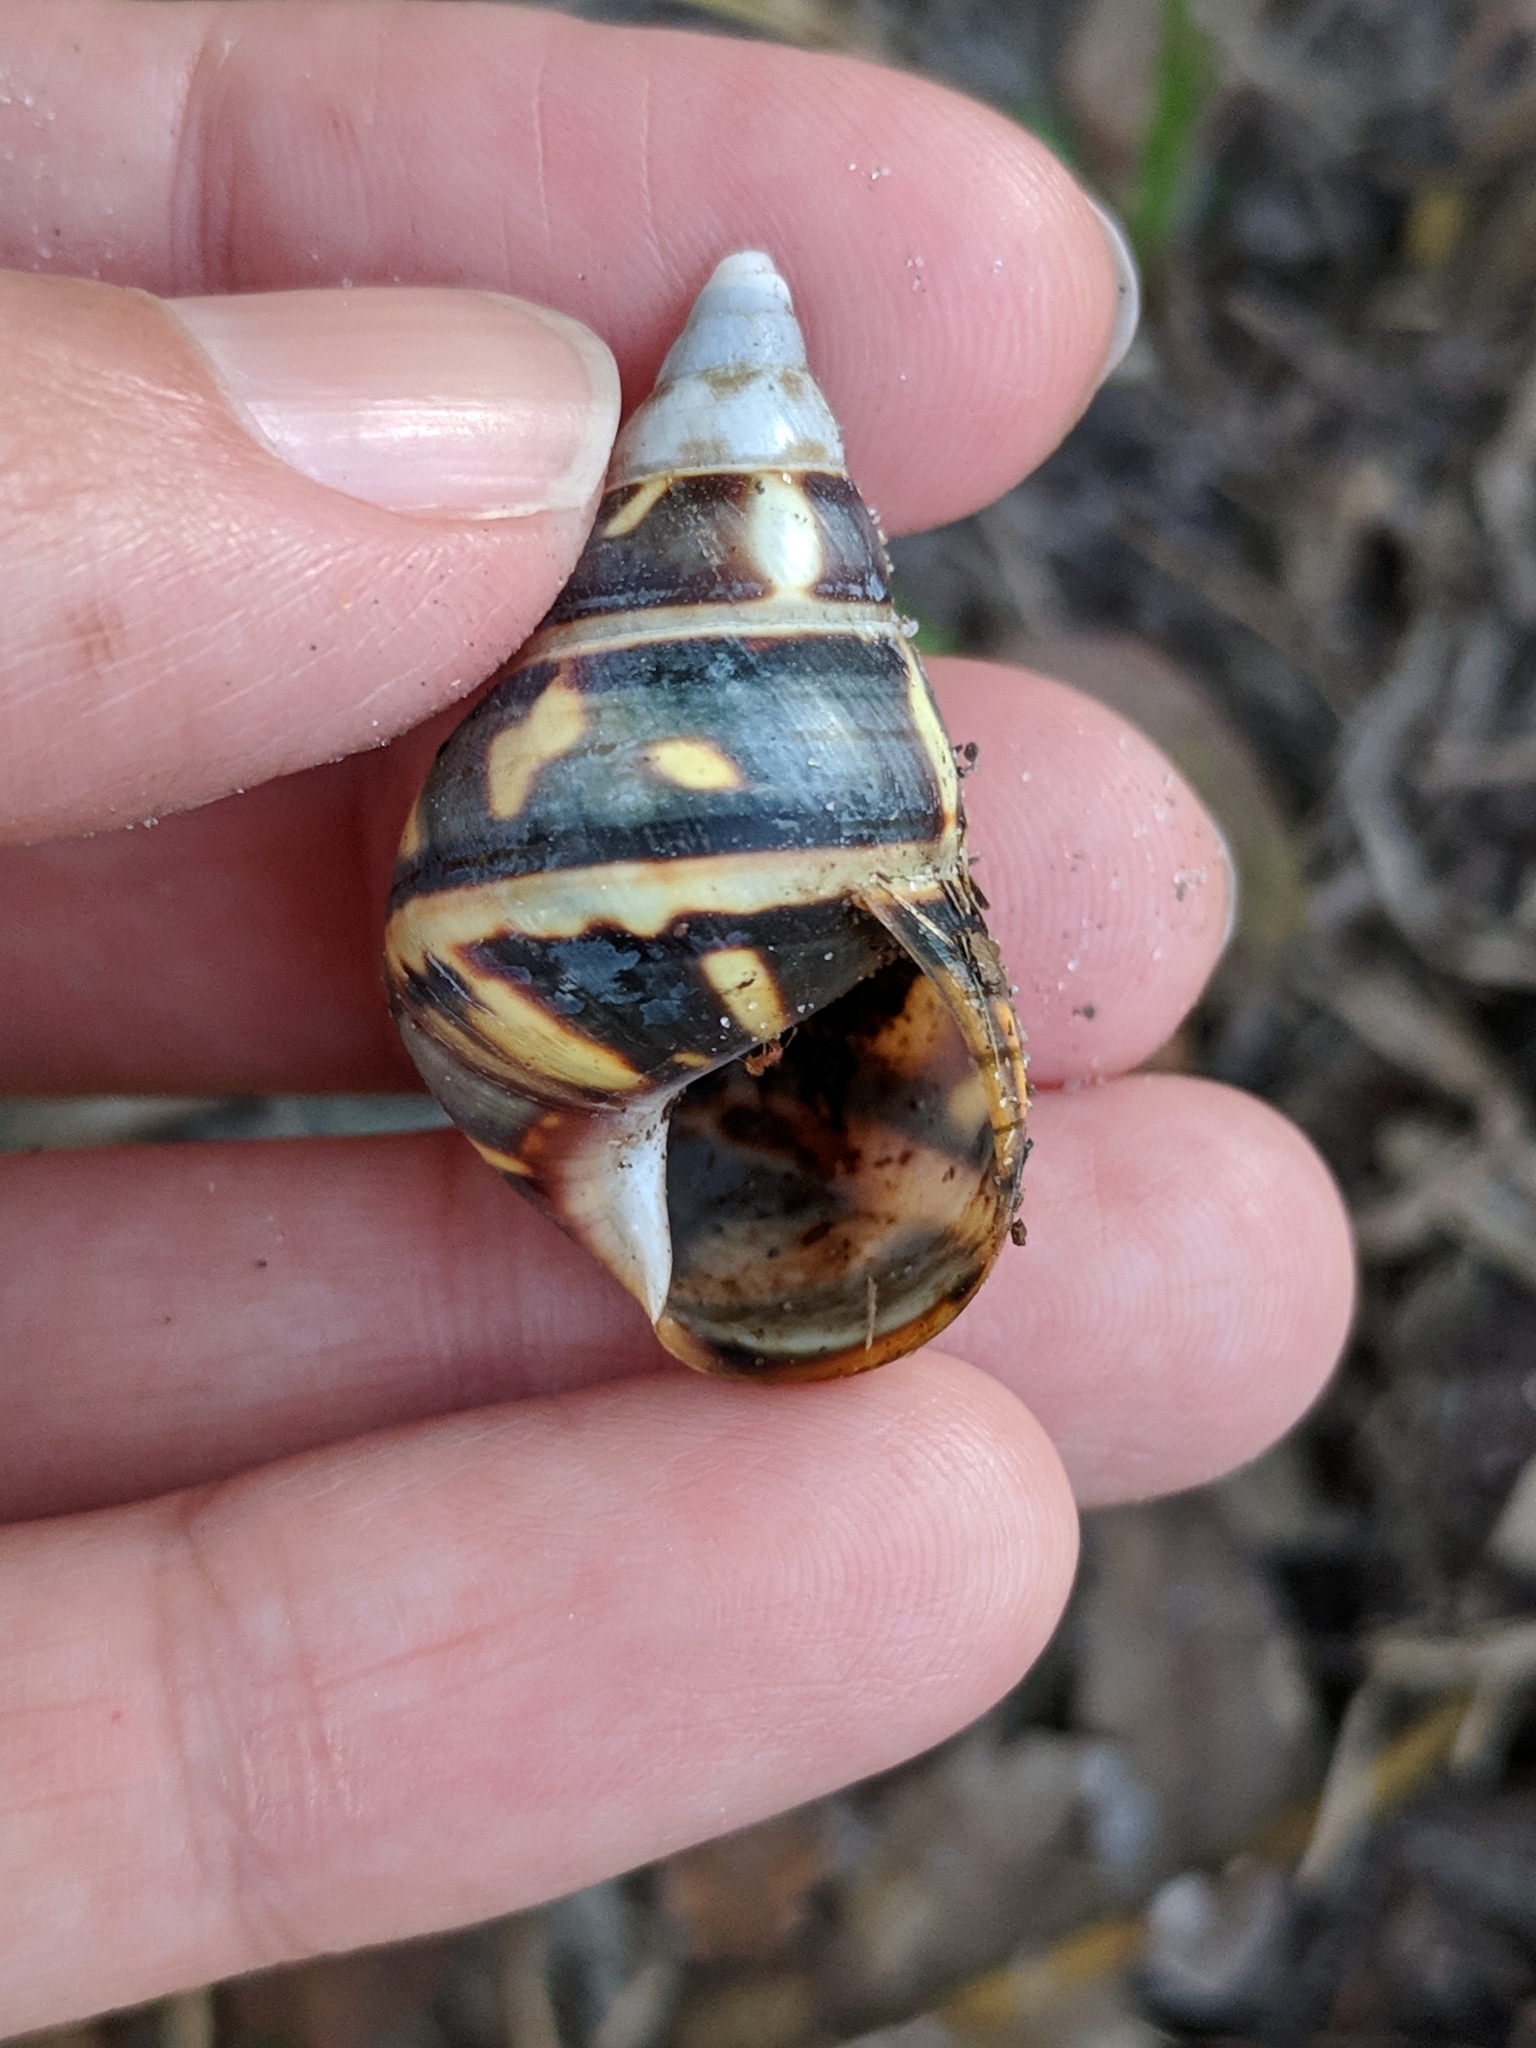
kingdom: Animalia
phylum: Mollusca
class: Gastropoda
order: Stylommatophora
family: Orthalicidae
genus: Liguus
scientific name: Liguus fasciatus
